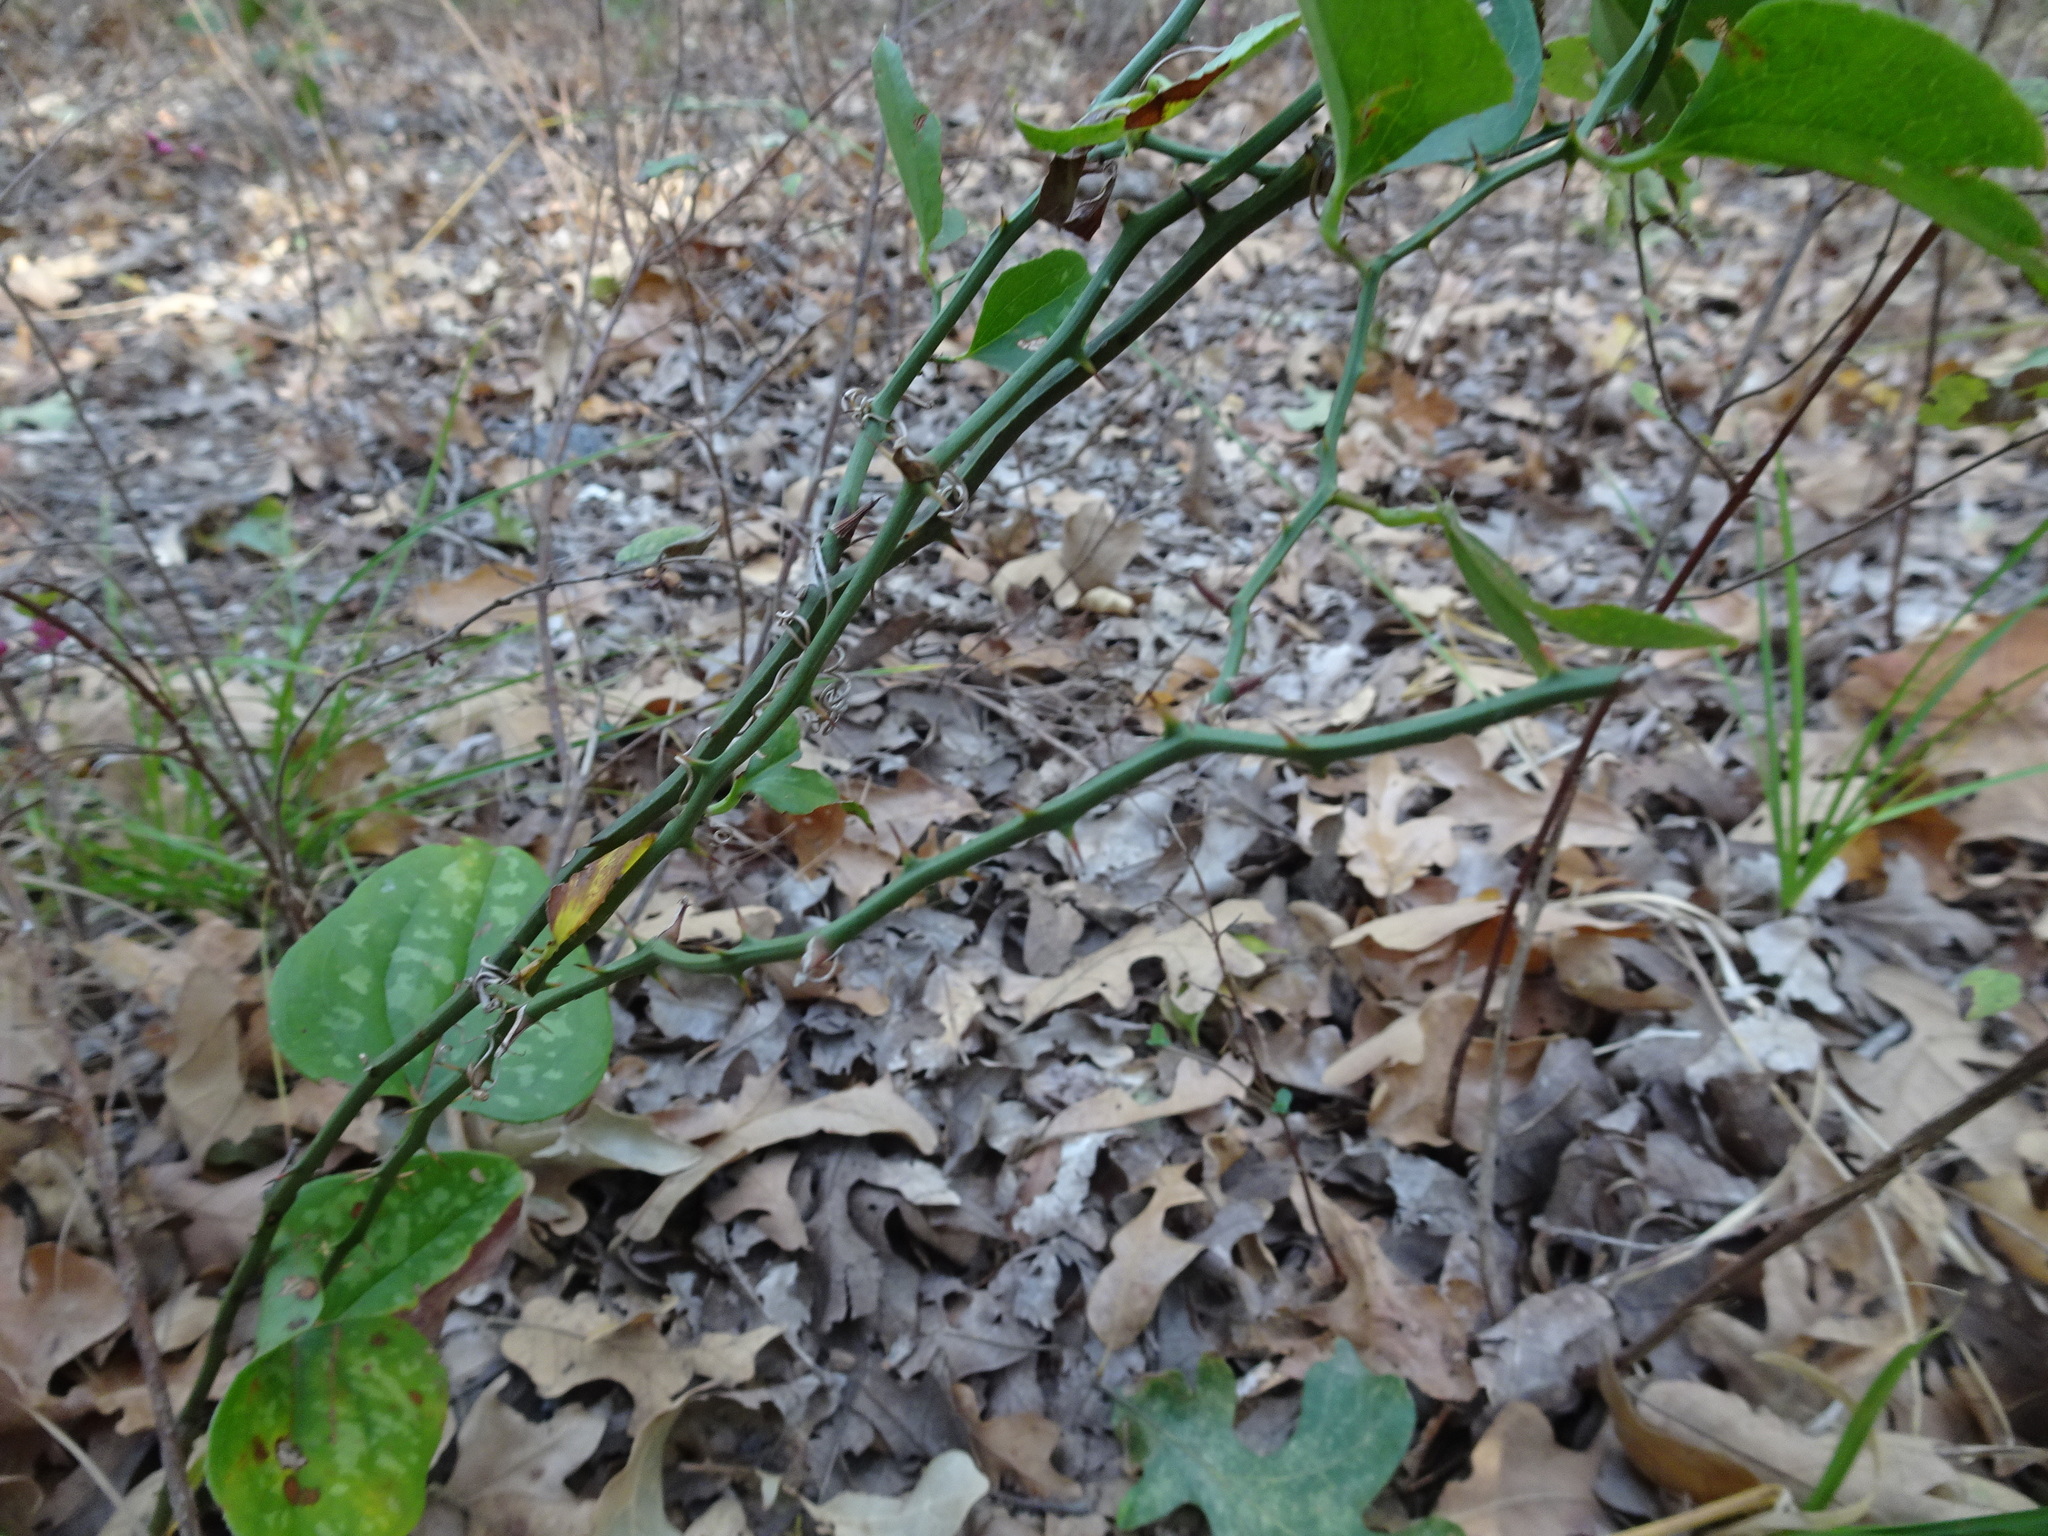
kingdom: Plantae
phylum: Tracheophyta
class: Liliopsida
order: Liliales
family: Smilacaceae
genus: Smilax
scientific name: Smilax bona-nox
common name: Catbrier
